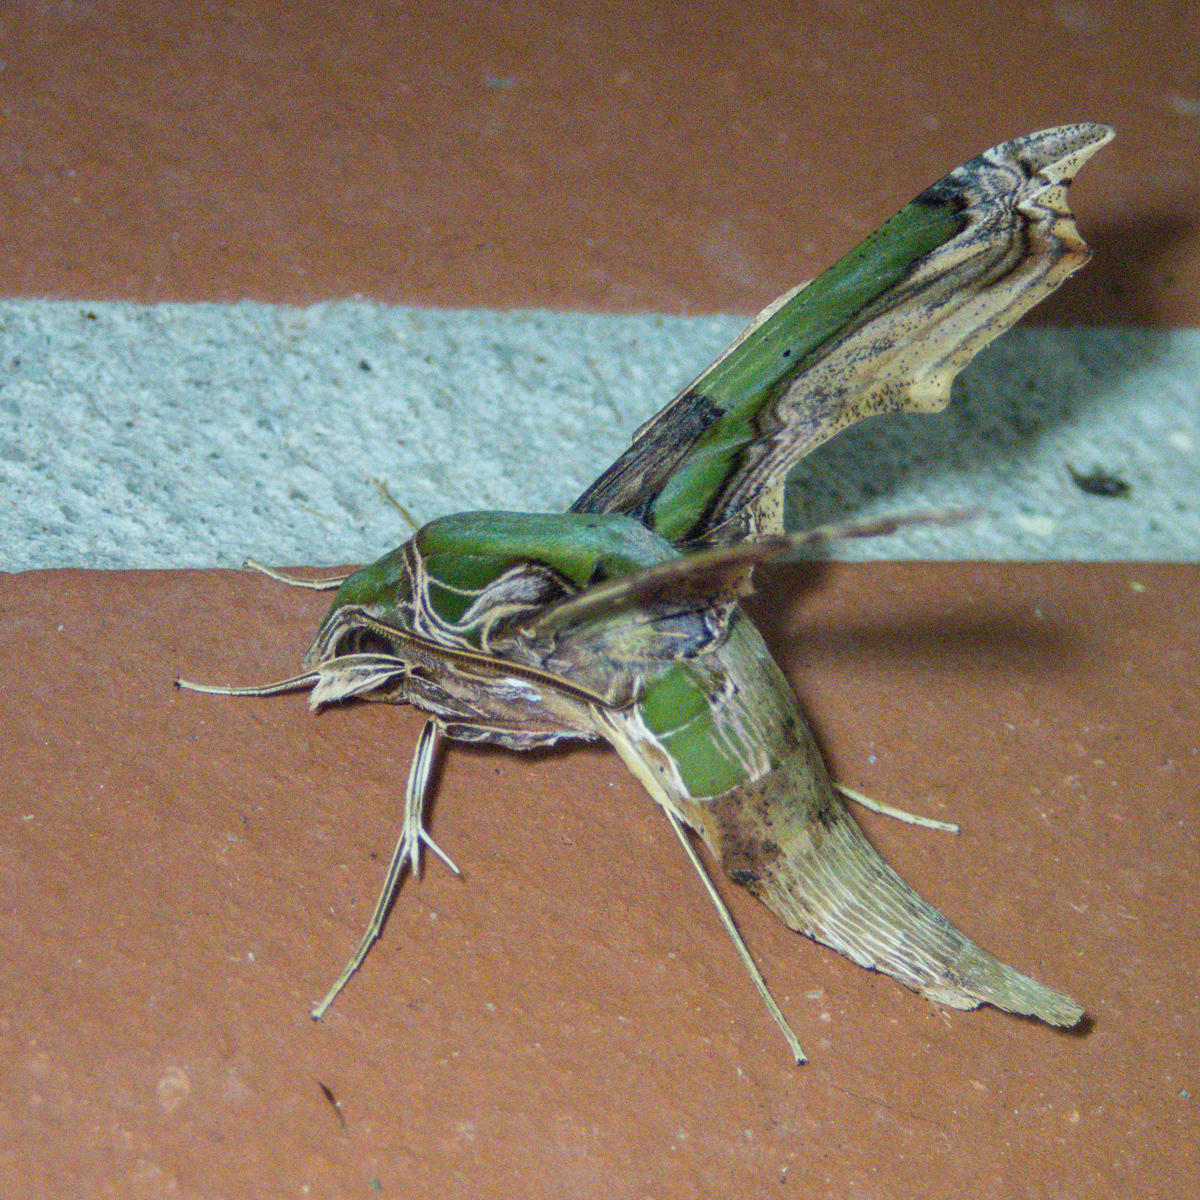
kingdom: Animalia
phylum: Arthropoda
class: Insecta
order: Lepidoptera
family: Sphingidae
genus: Eupanacra
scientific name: Eupanacra busiris
